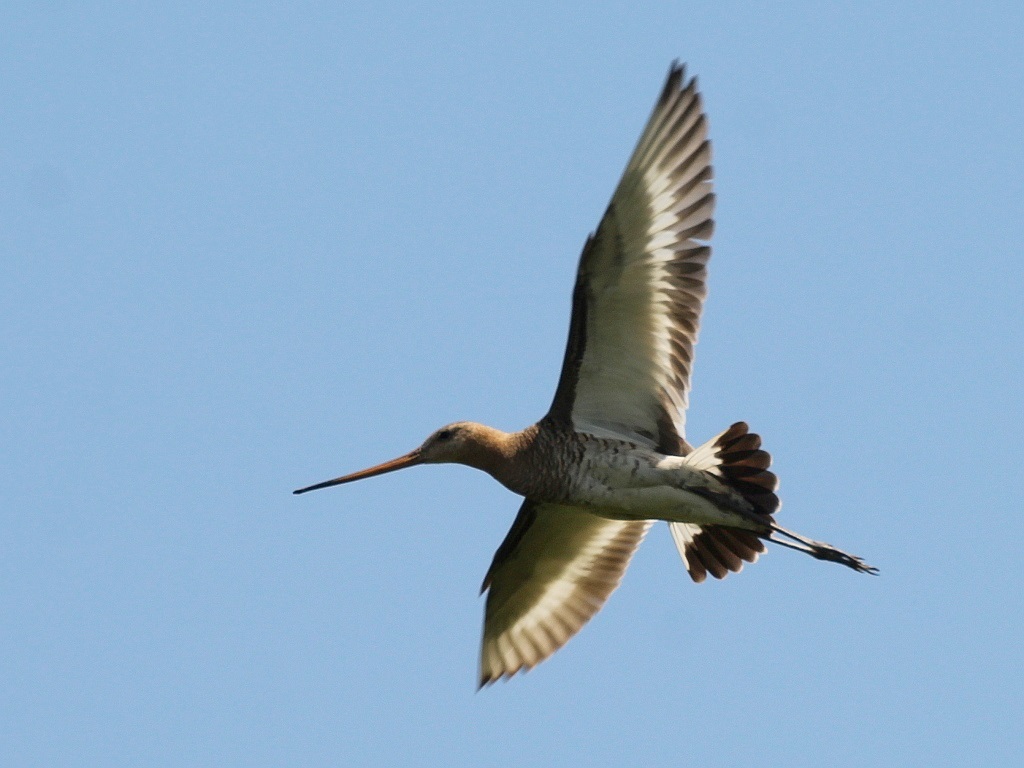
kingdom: Animalia
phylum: Chordata
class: Aves
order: Charadriiformes
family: Scolopacidae
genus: Limosa
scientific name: Limosa limosa
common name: Black-tailed godwit
